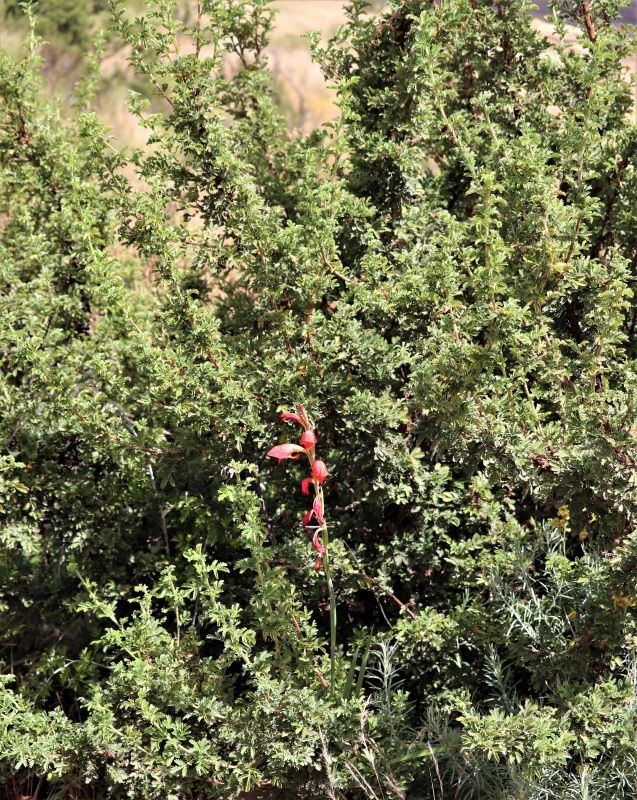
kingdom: Plantae
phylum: Tracheophyta
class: Magnoliopsida
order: Rosales
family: Rosaceae
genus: Leucosidea
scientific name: Leucosidea sericea
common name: Oldwood
